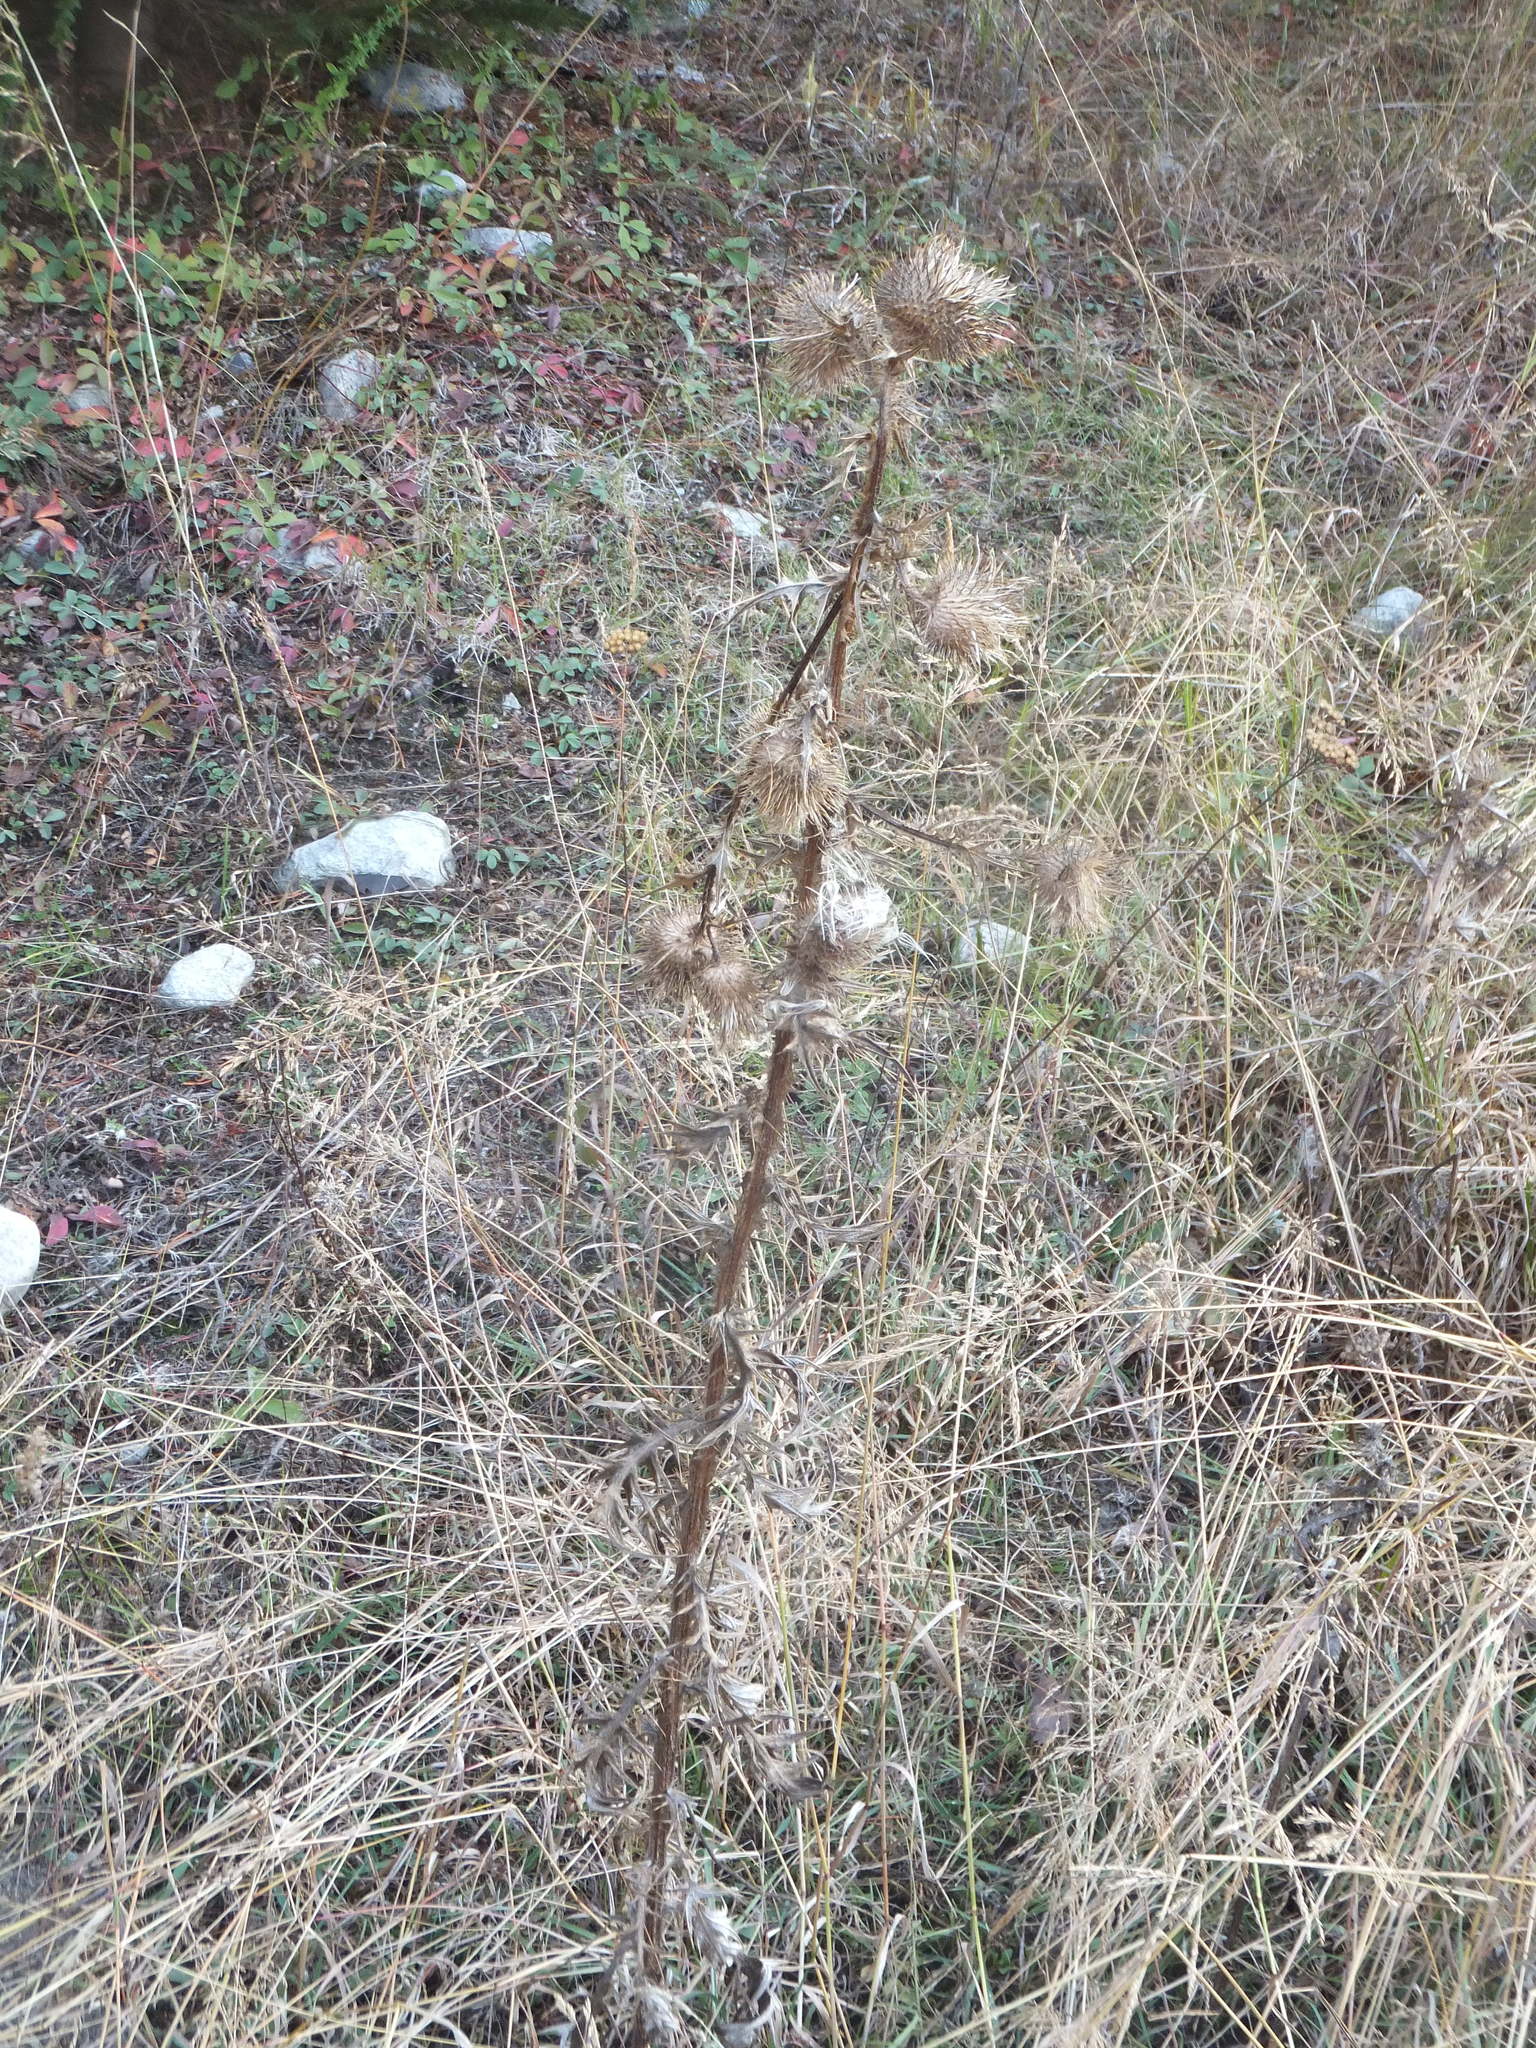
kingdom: Plantae
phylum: Tracheophyta
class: Magnoliopsida
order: Asterales
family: Asteraceae
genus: Cirsium
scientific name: Cirsium vulgare
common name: Bull thistle
